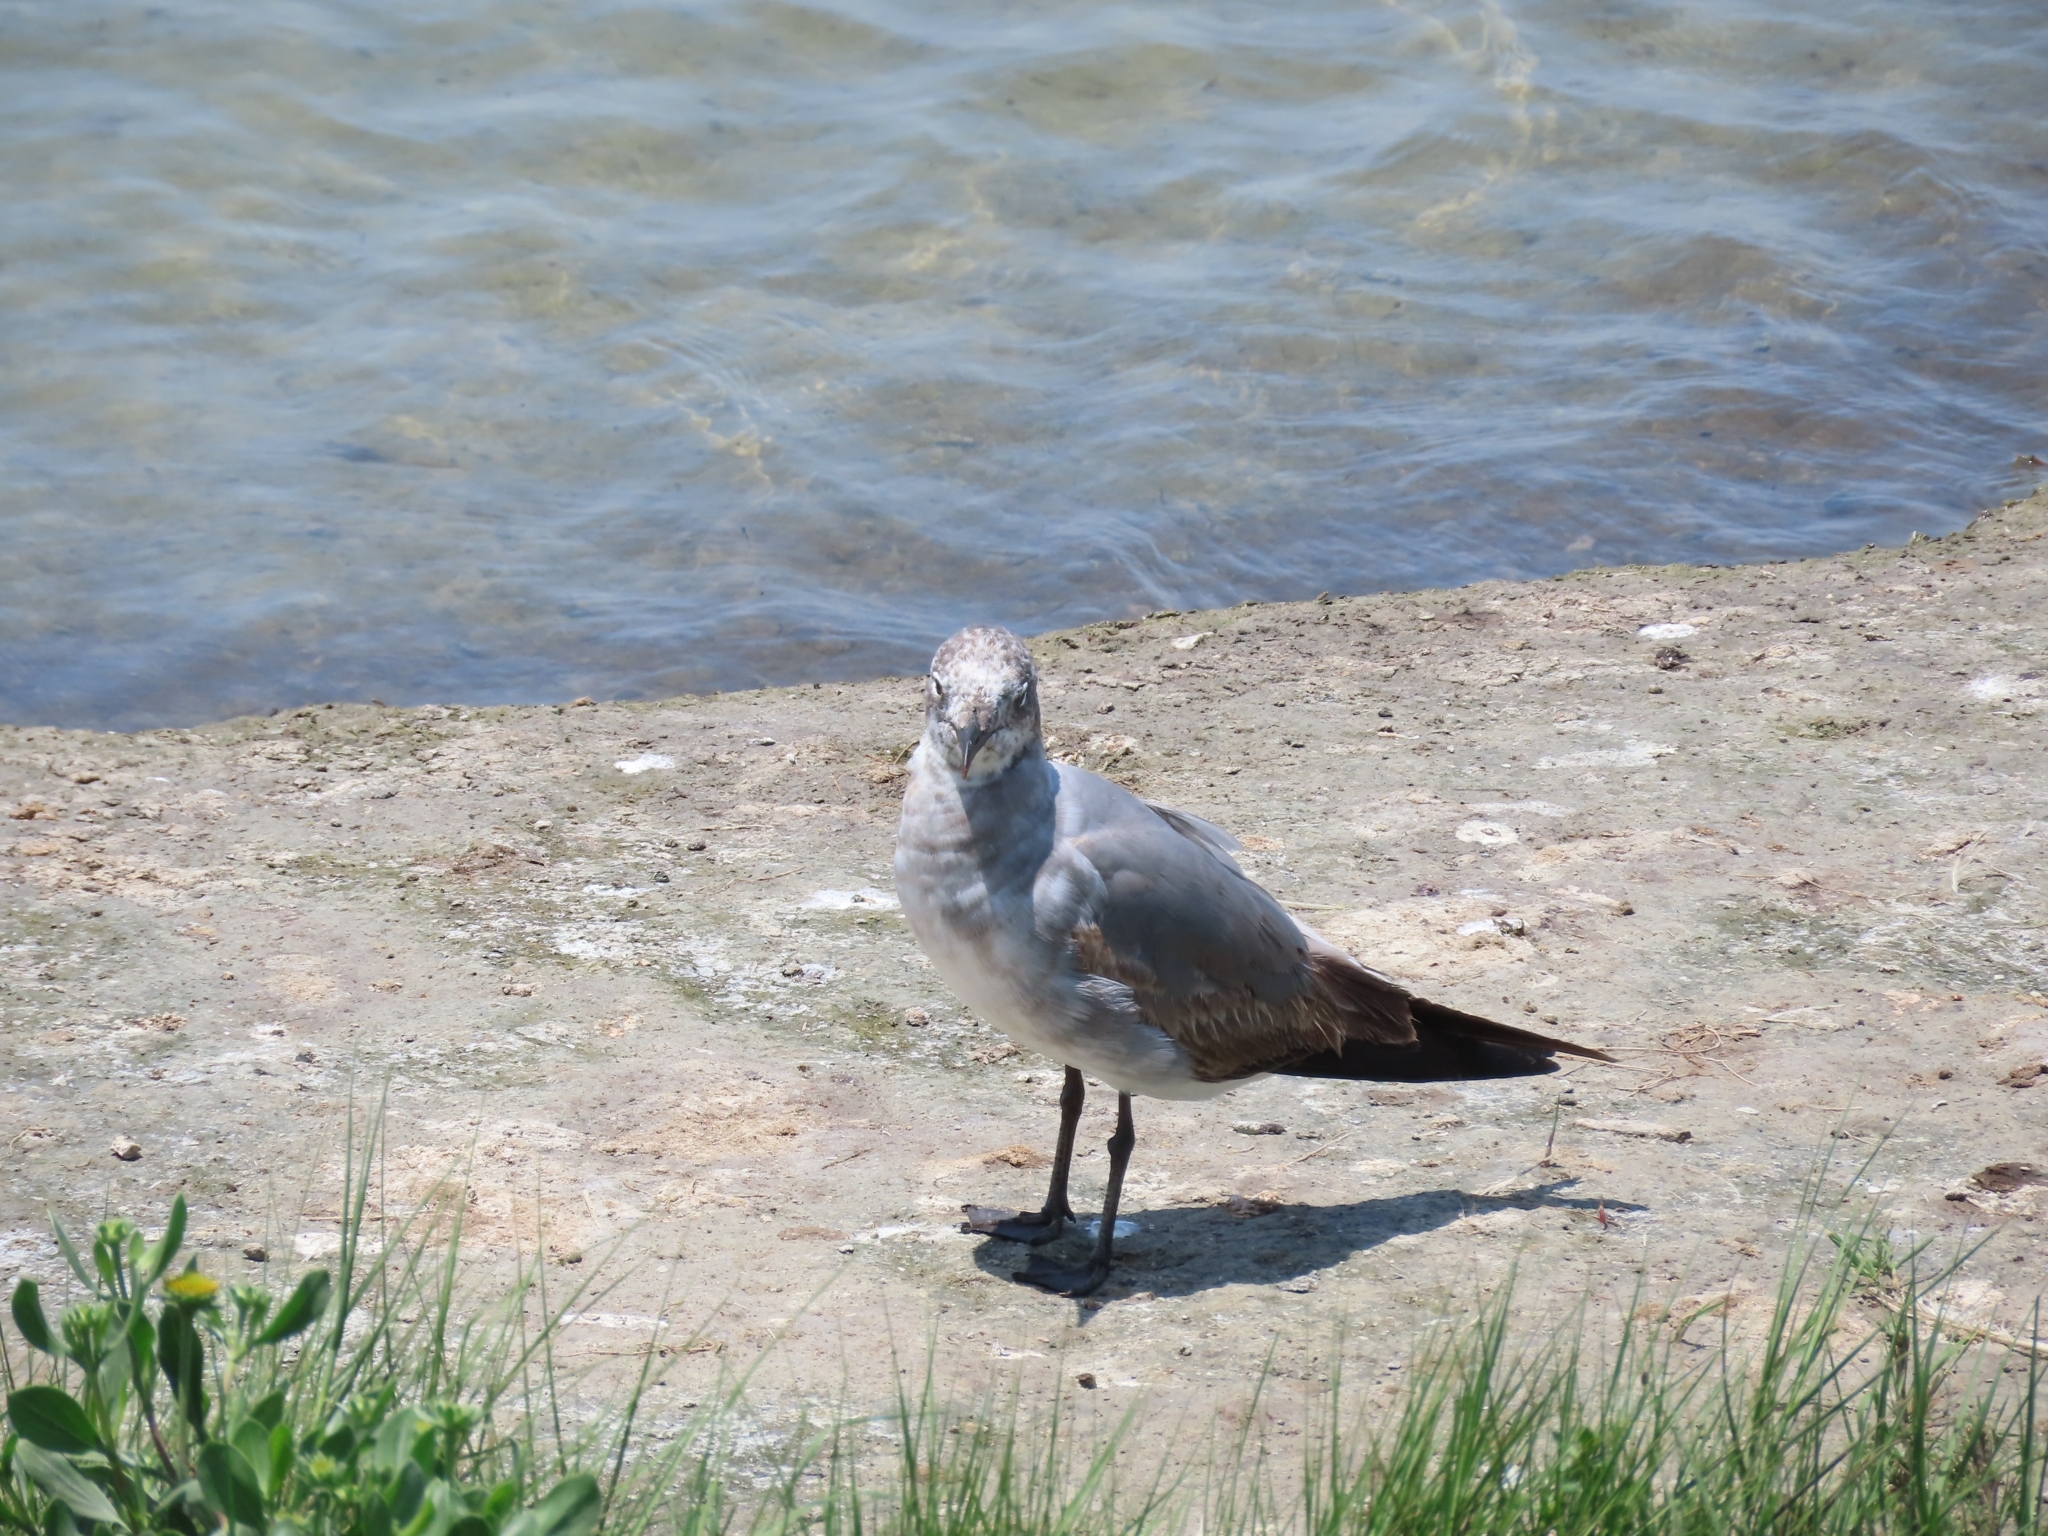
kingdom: Animalia
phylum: Chordata
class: Aves
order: Charadriiformes
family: Laridae
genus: Leucophaeus
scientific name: Leucophaeus atricilla
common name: Laughing gull
